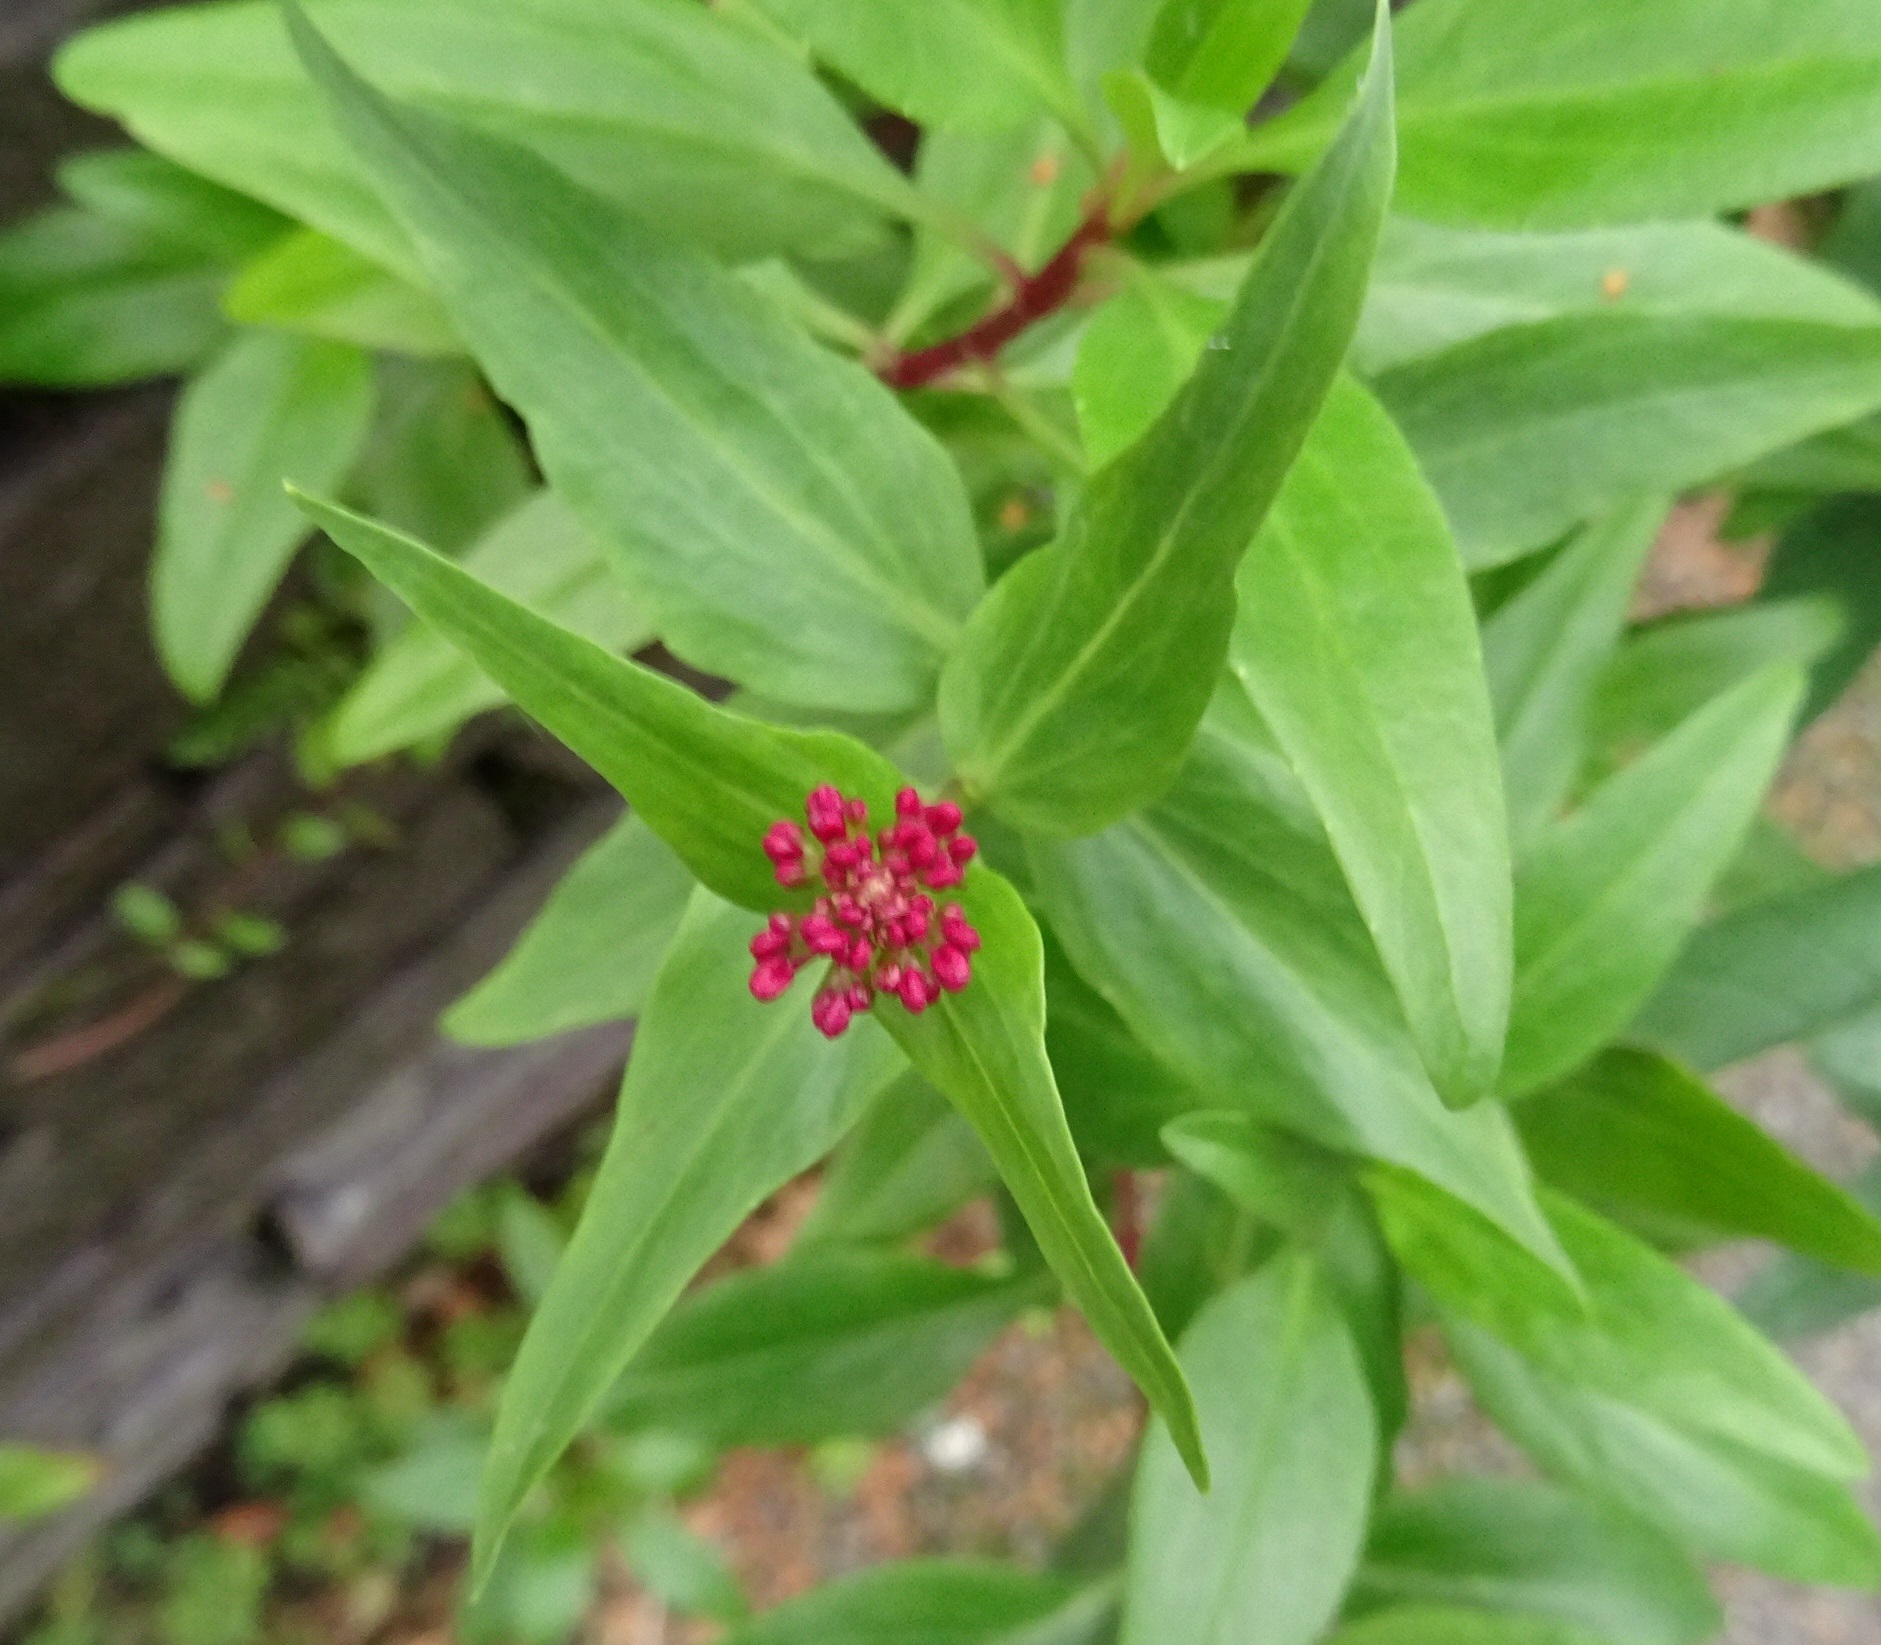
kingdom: Plantae
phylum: Tracheophyta
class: Magnoliopsida
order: Dipsacales
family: Caprifoliaceae
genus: Centranthus
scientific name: Centranthus ruber
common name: Red valerian
